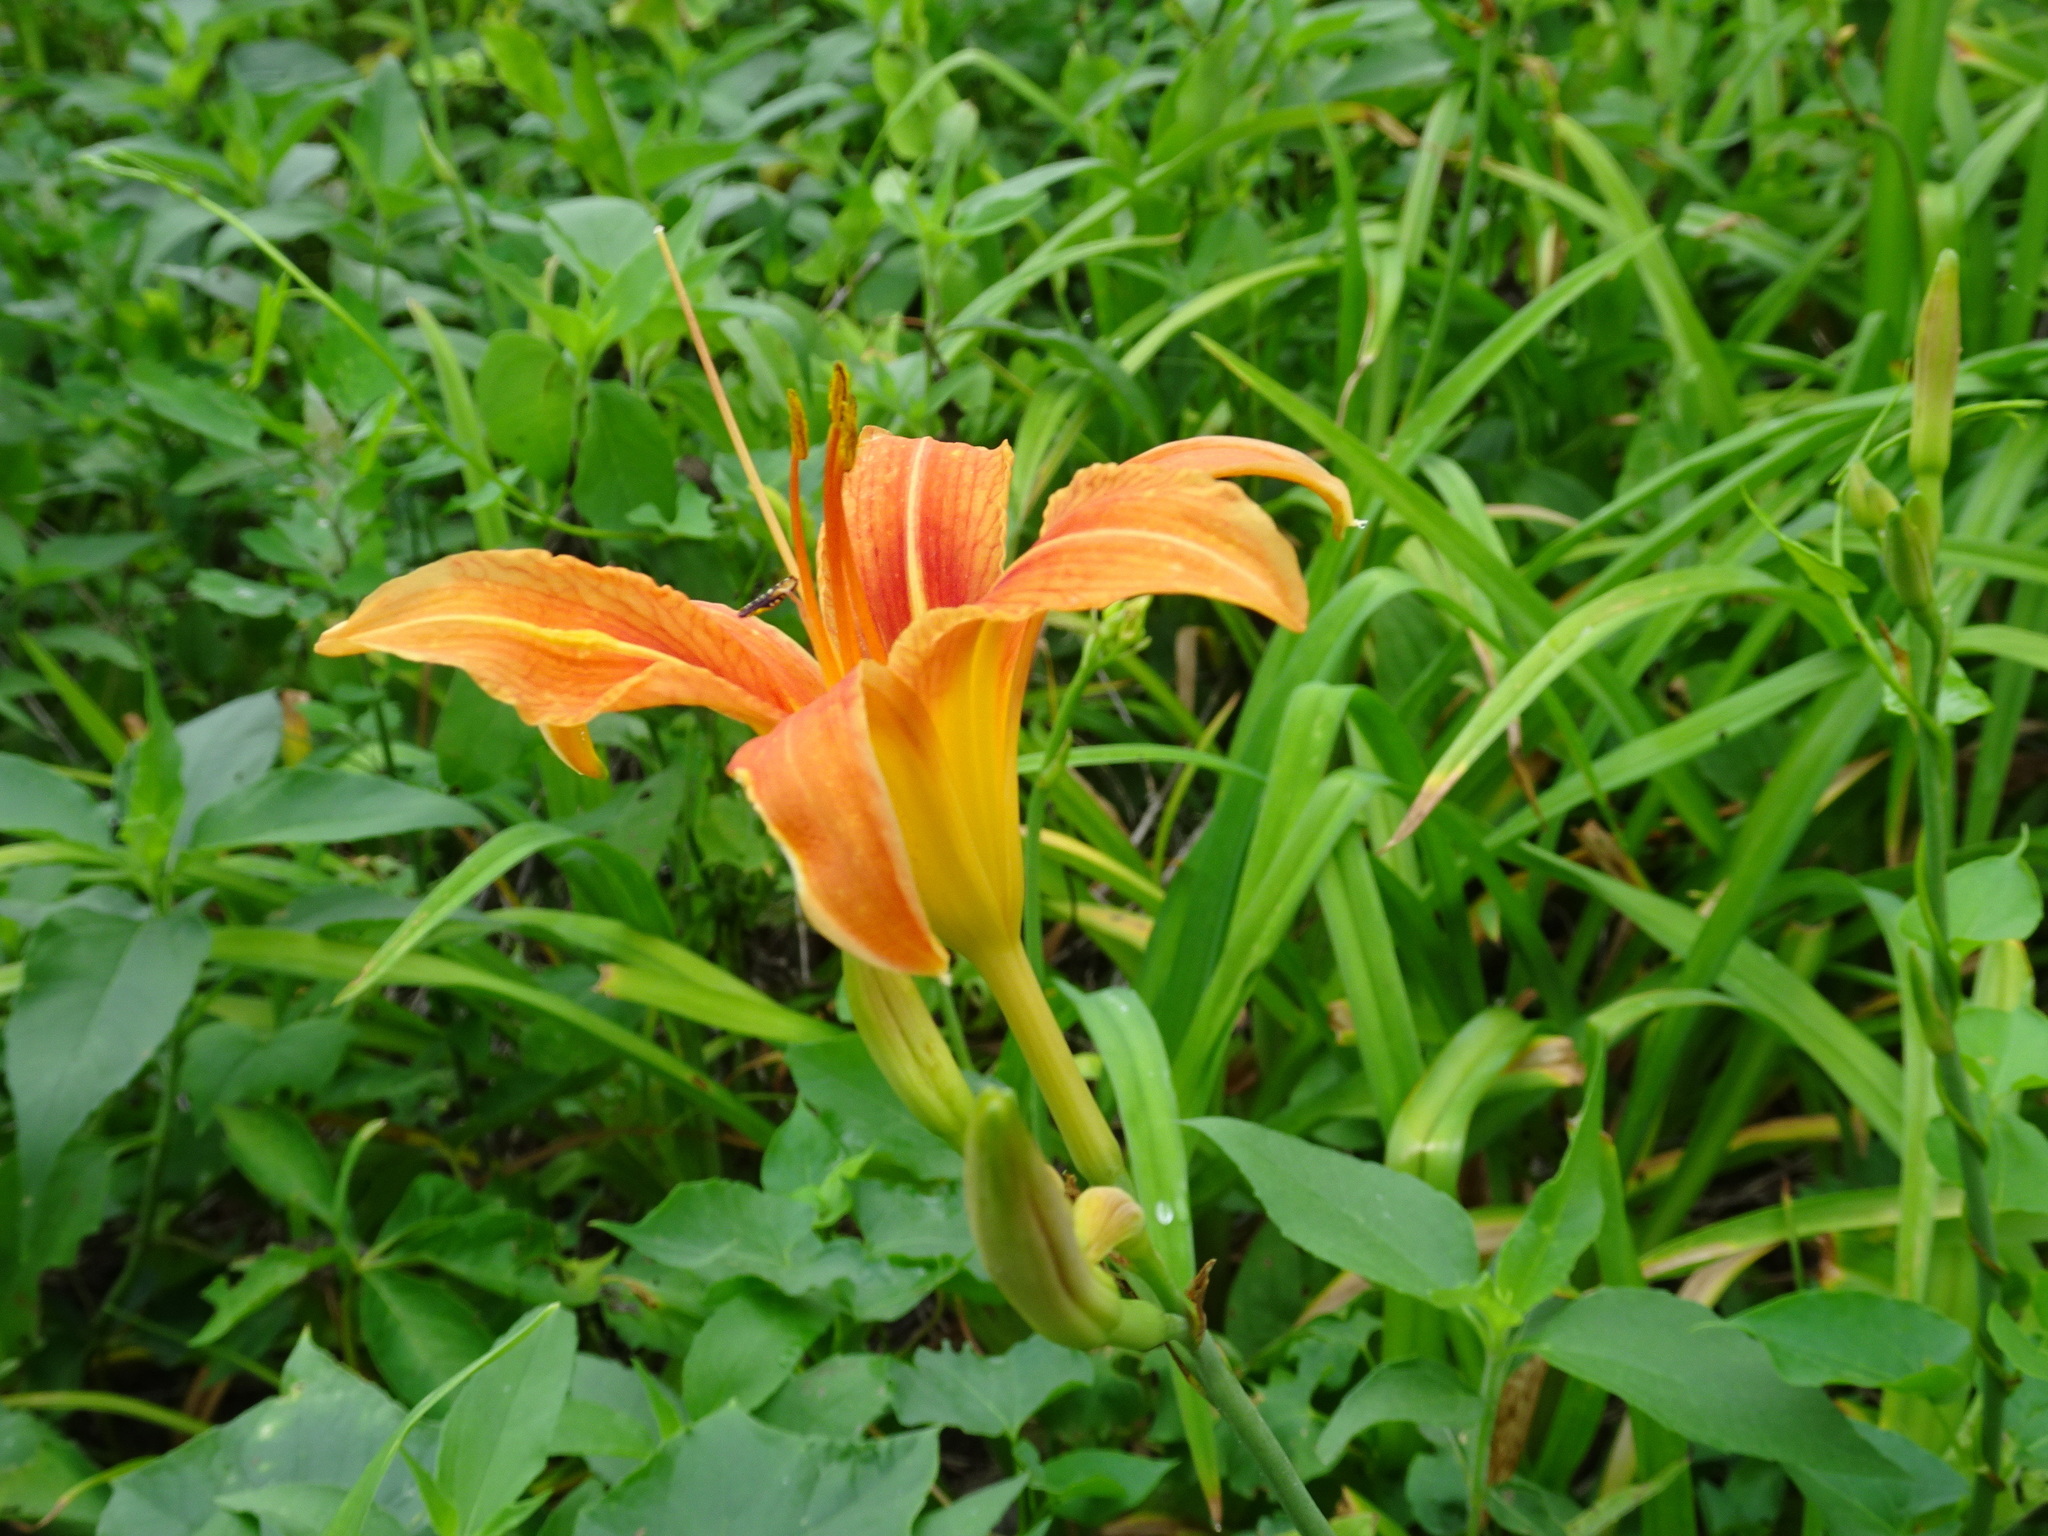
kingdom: Plantae
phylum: Tracheophyta
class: Liliopsida
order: Asparagales
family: Asphodelaceae
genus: Hemerocallis
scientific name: Hemerocallis fulva
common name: Orange day-lily
